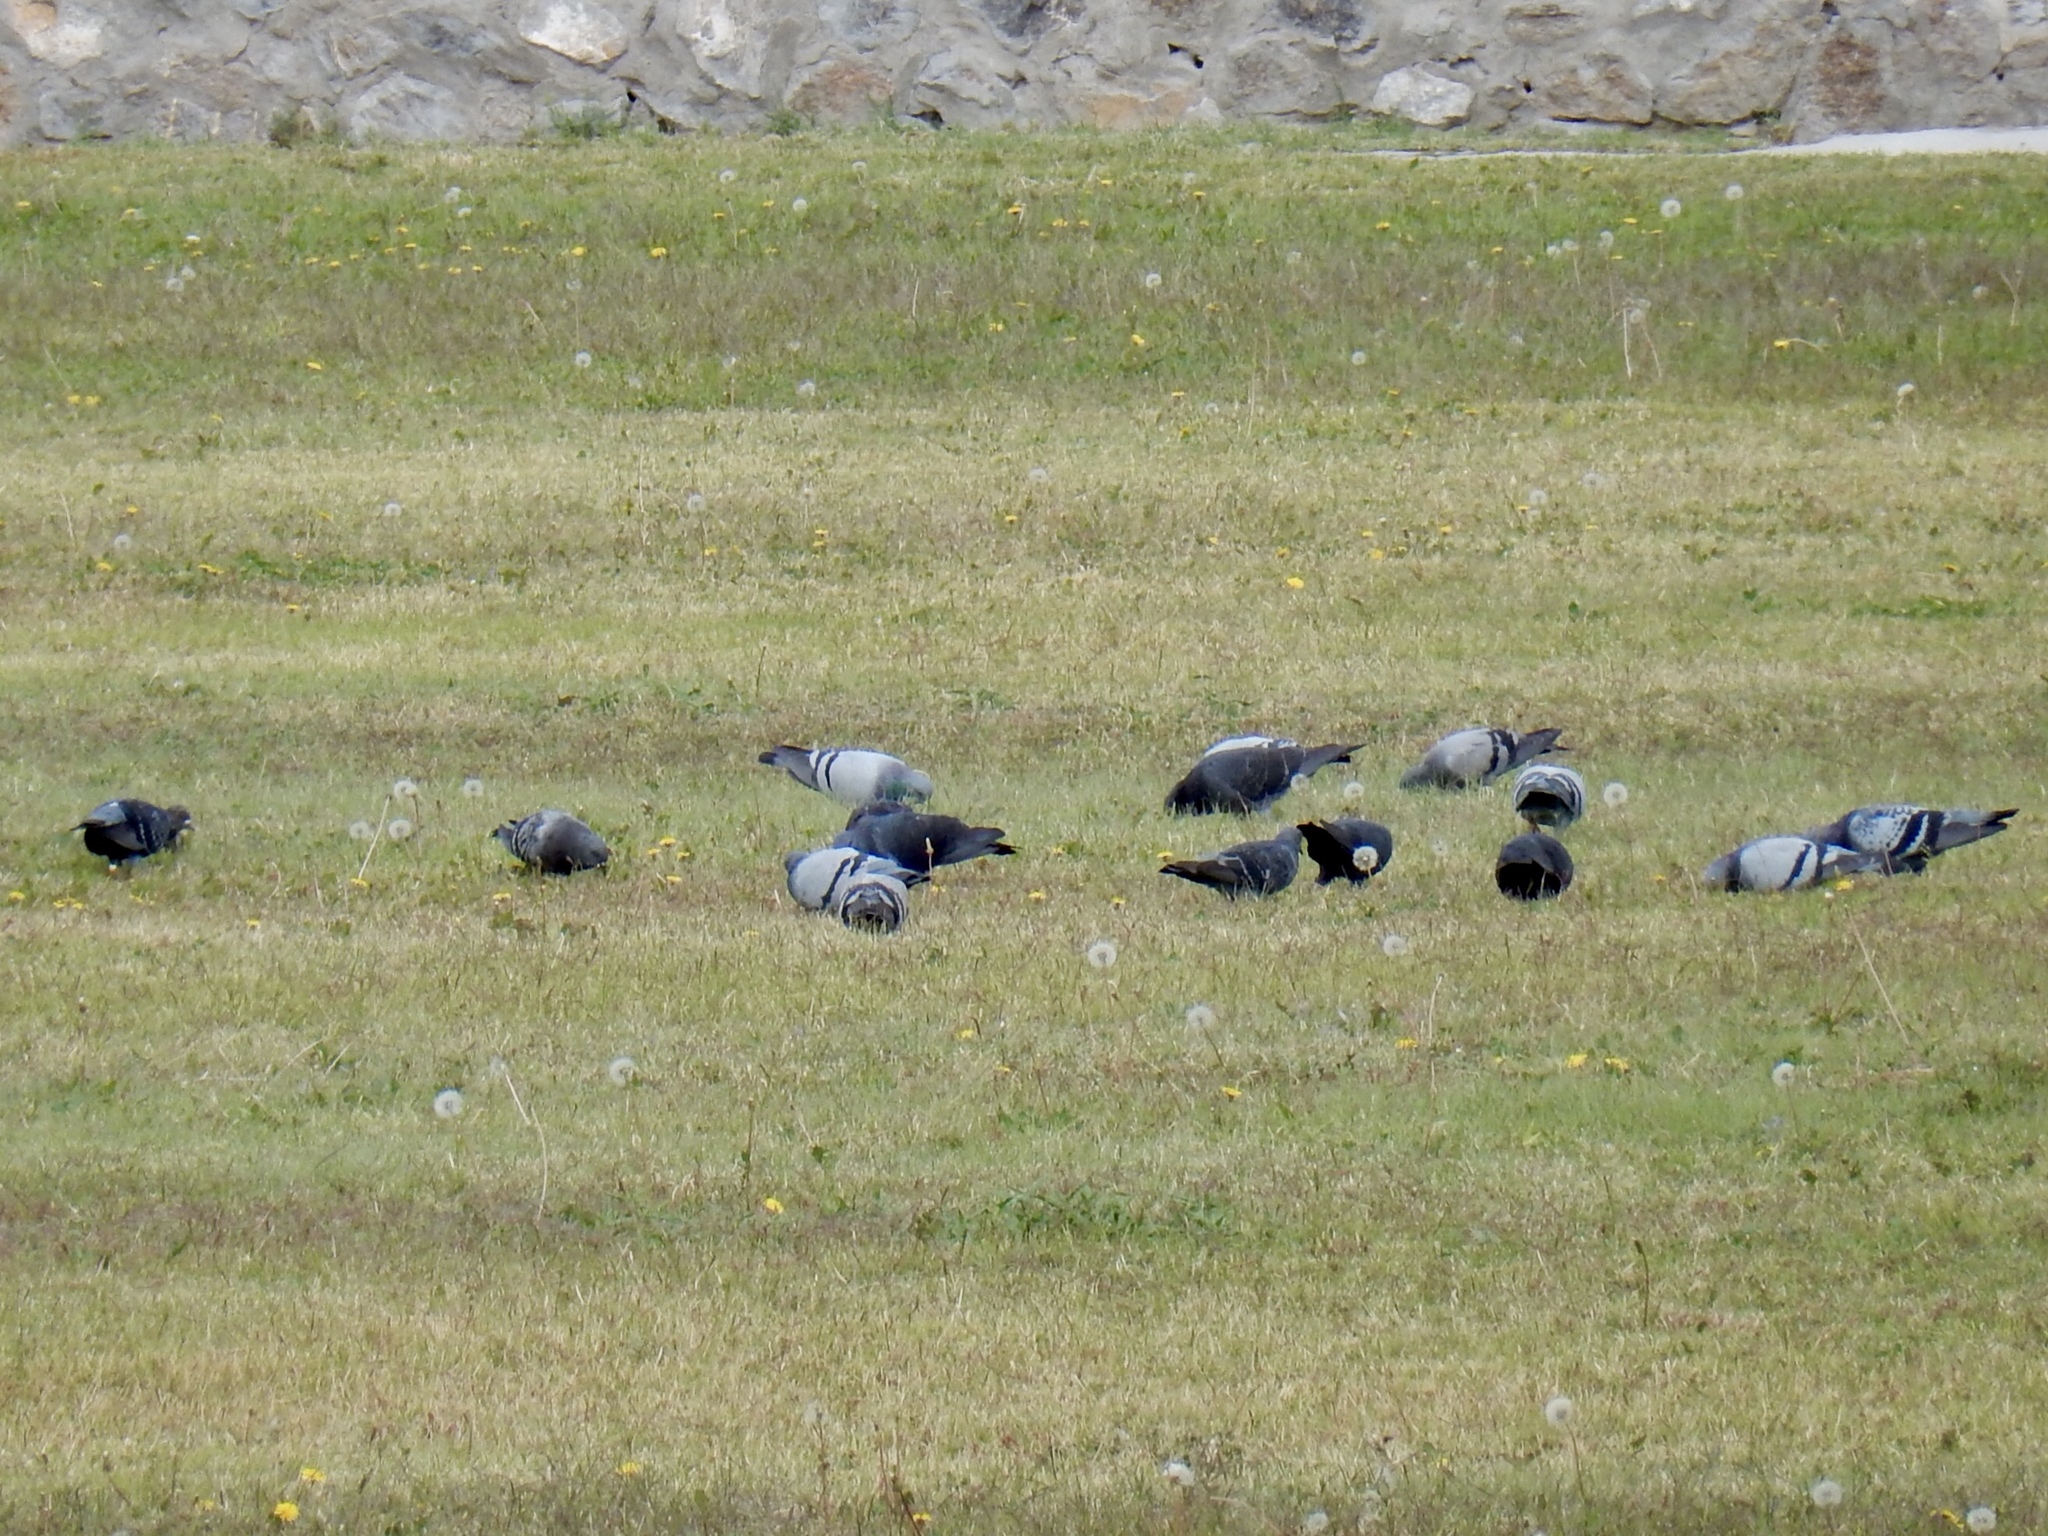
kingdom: Animalia
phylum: Chordata
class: Aves
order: Columbiformes
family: Columbidae
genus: Columba
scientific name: Columba livia
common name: Rock pigeon
